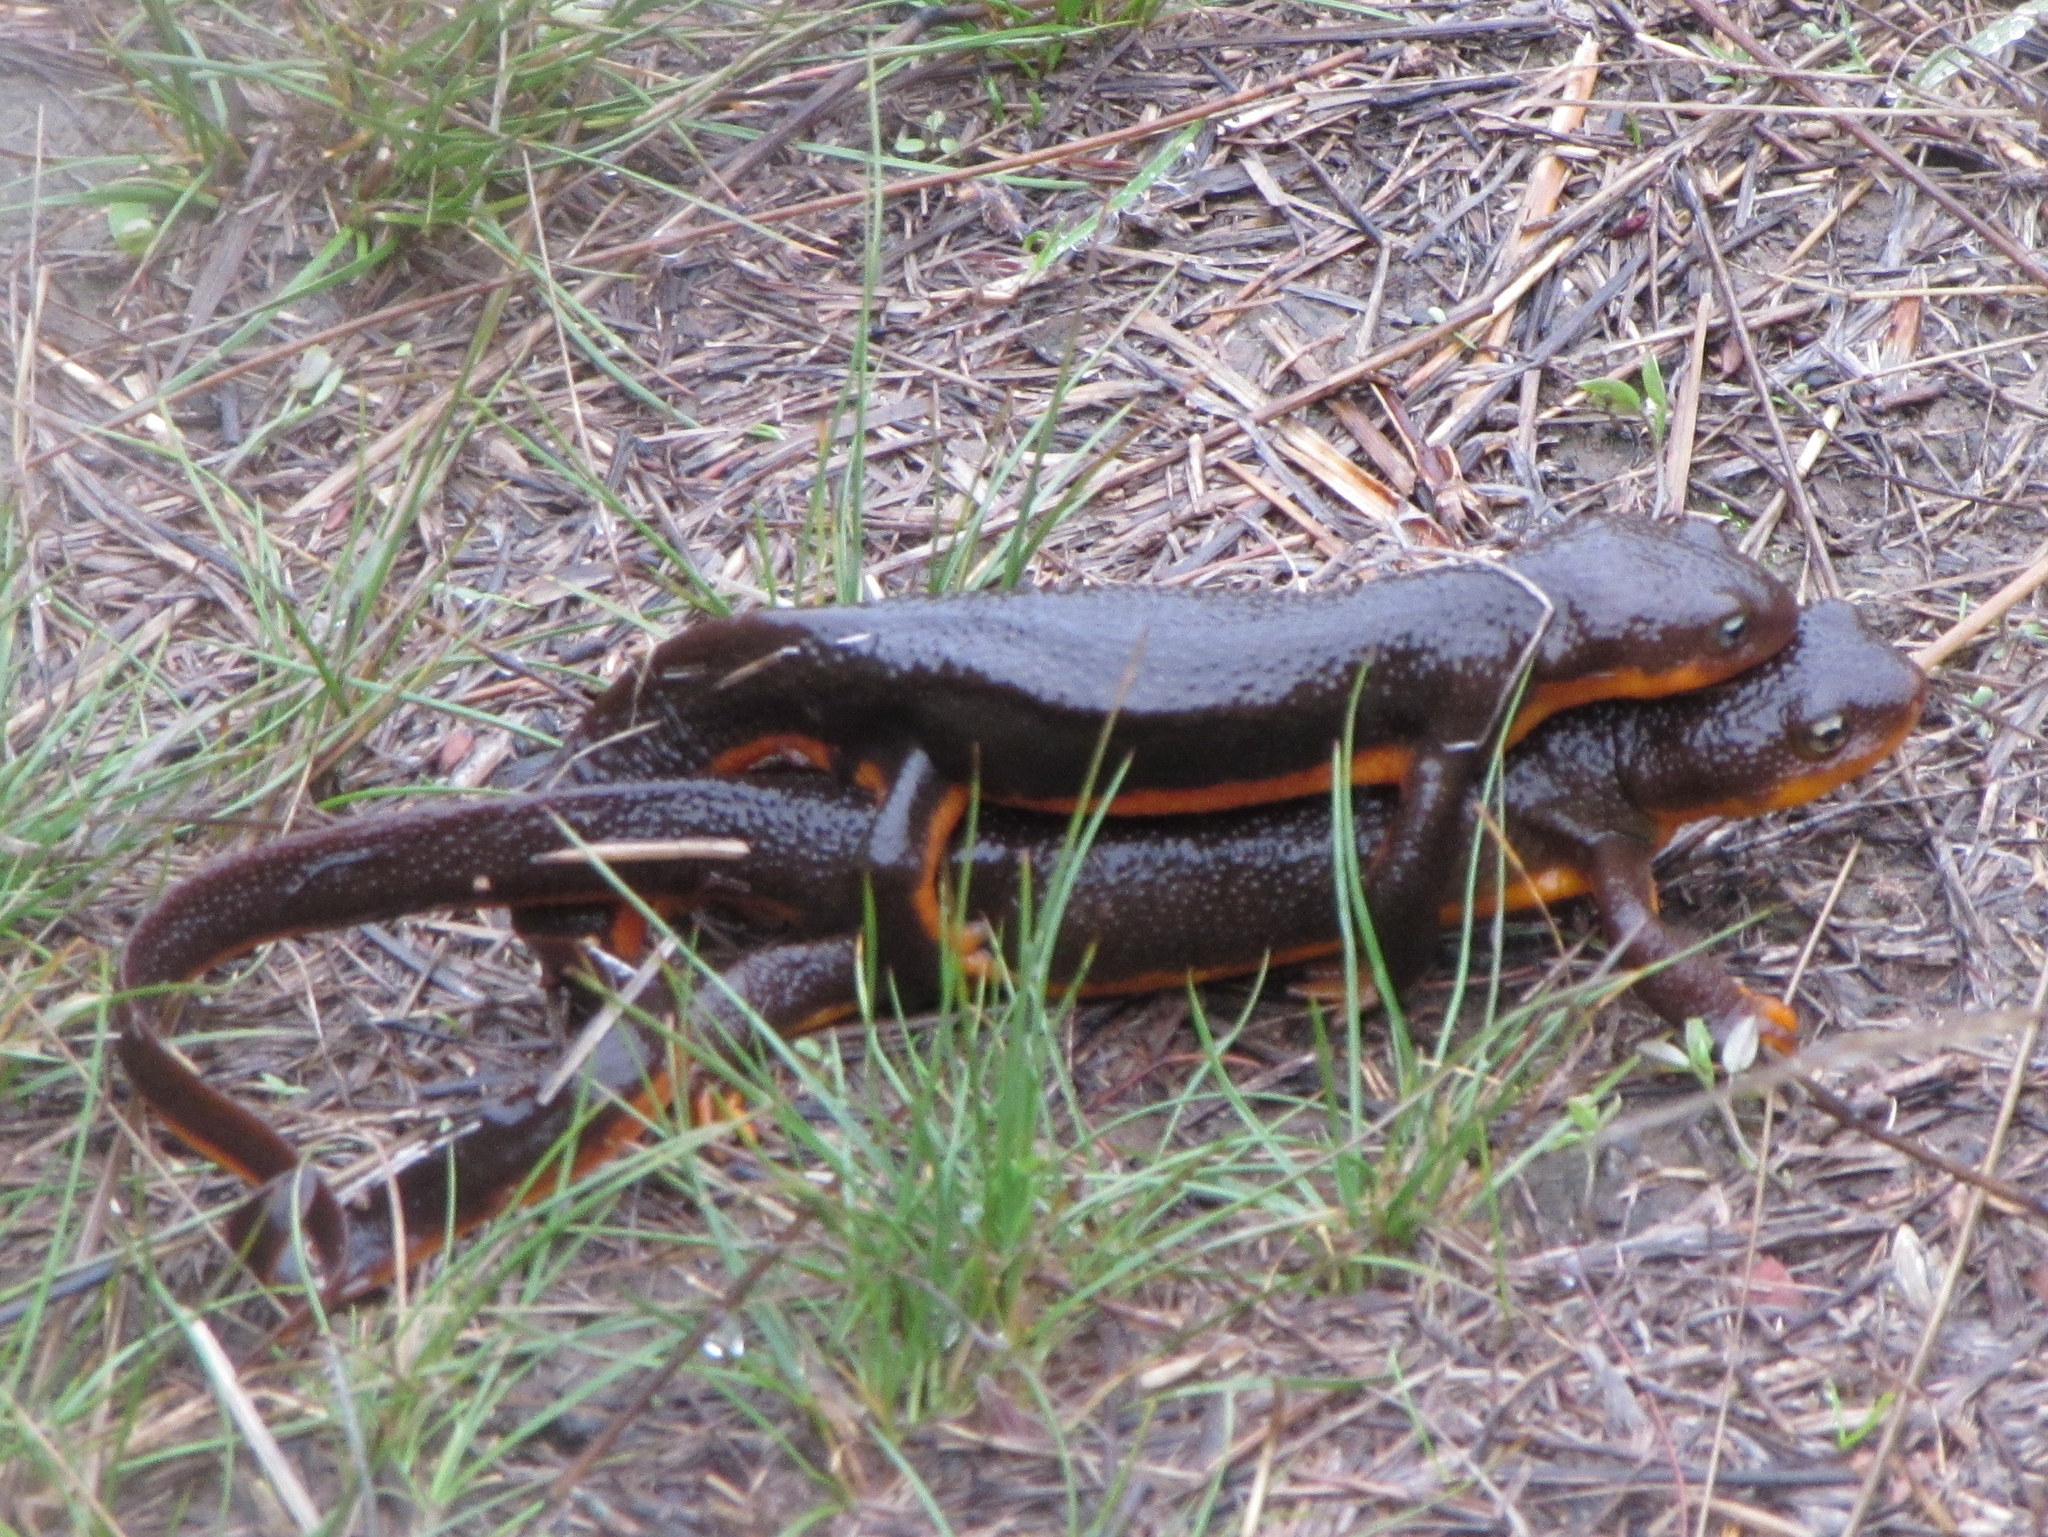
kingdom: Animalia
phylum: Chordata
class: Amphibia
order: Caudata
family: Salamandridae
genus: Taricha
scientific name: Taricha granulosa
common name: Roughskin newt
